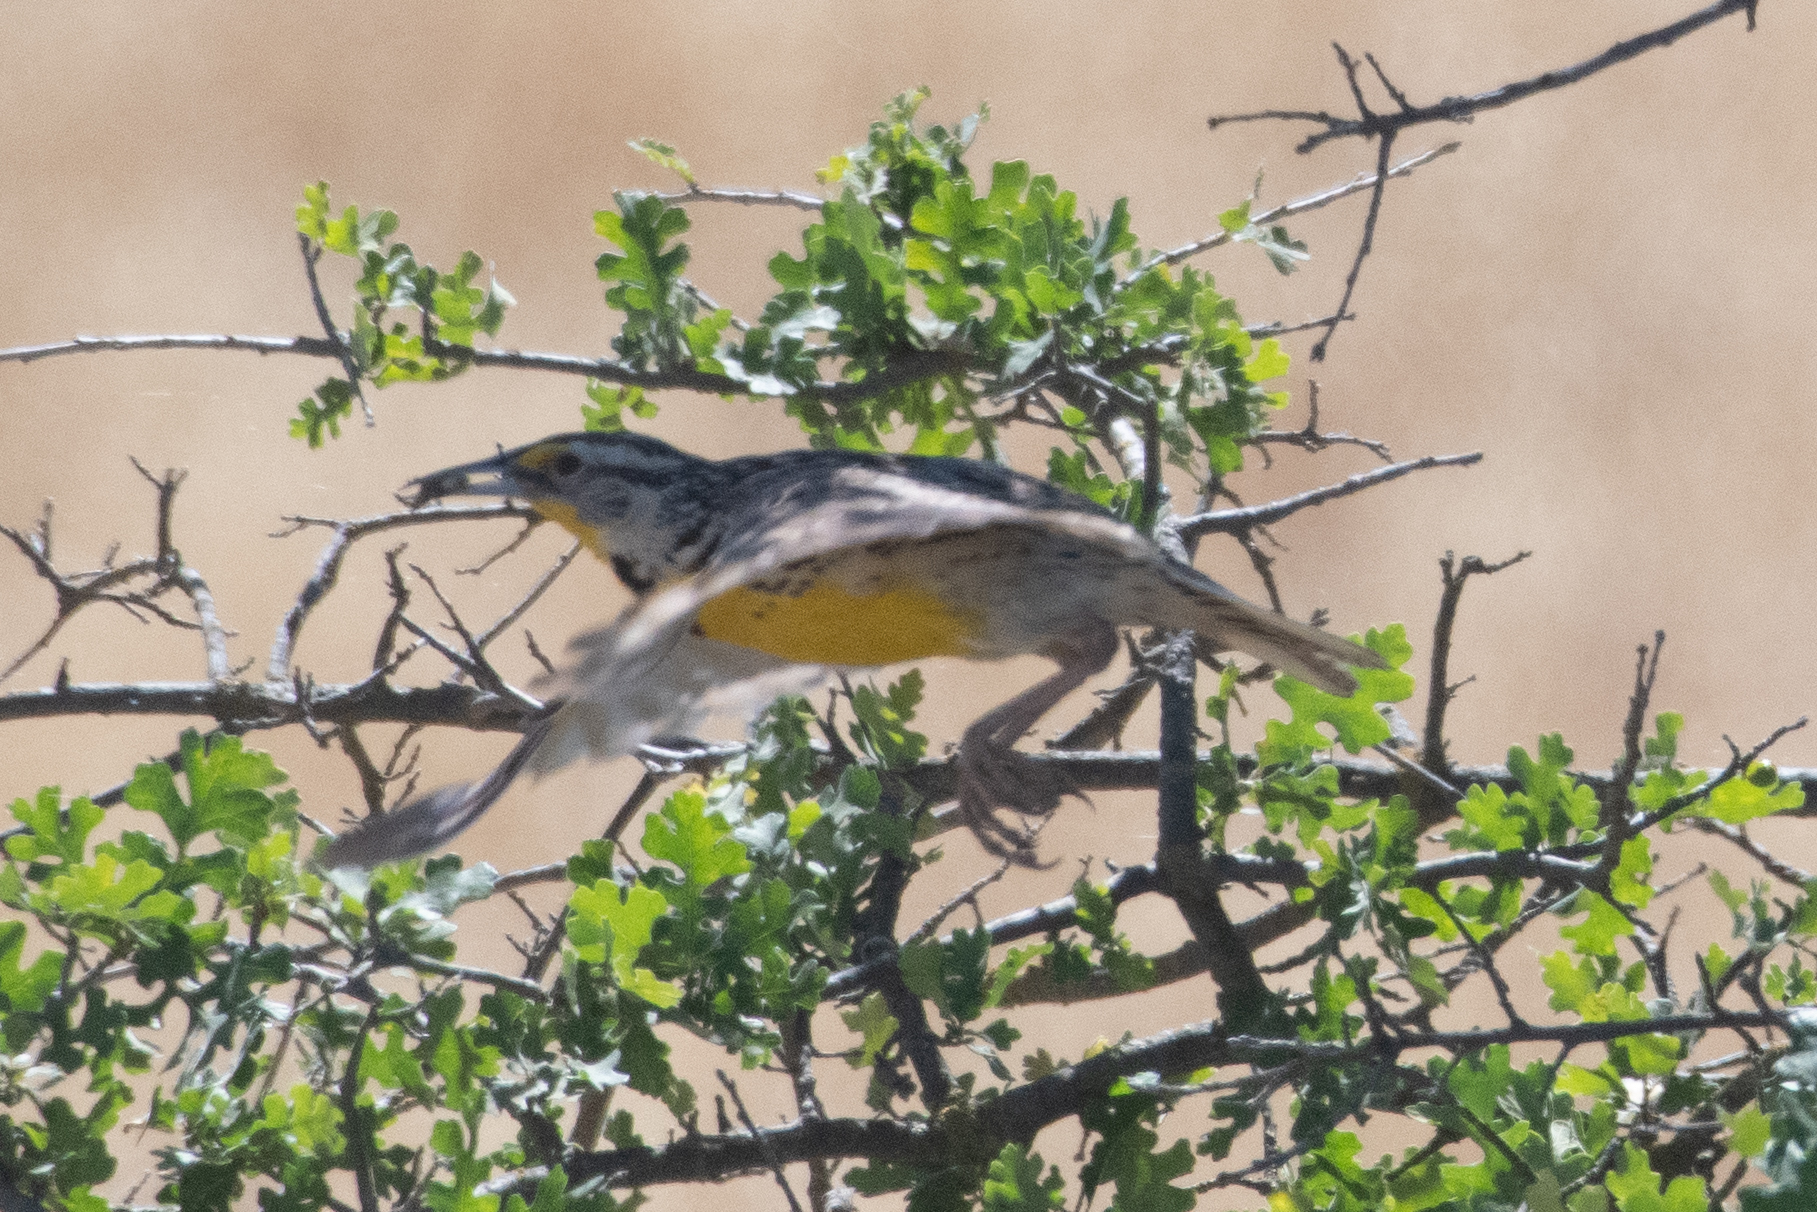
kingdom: Animalia
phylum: Chordata
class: Aves
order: Passeriformes
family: Icteridae
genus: Sturnella
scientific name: Sturnella neglecta
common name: Western meadowlark
